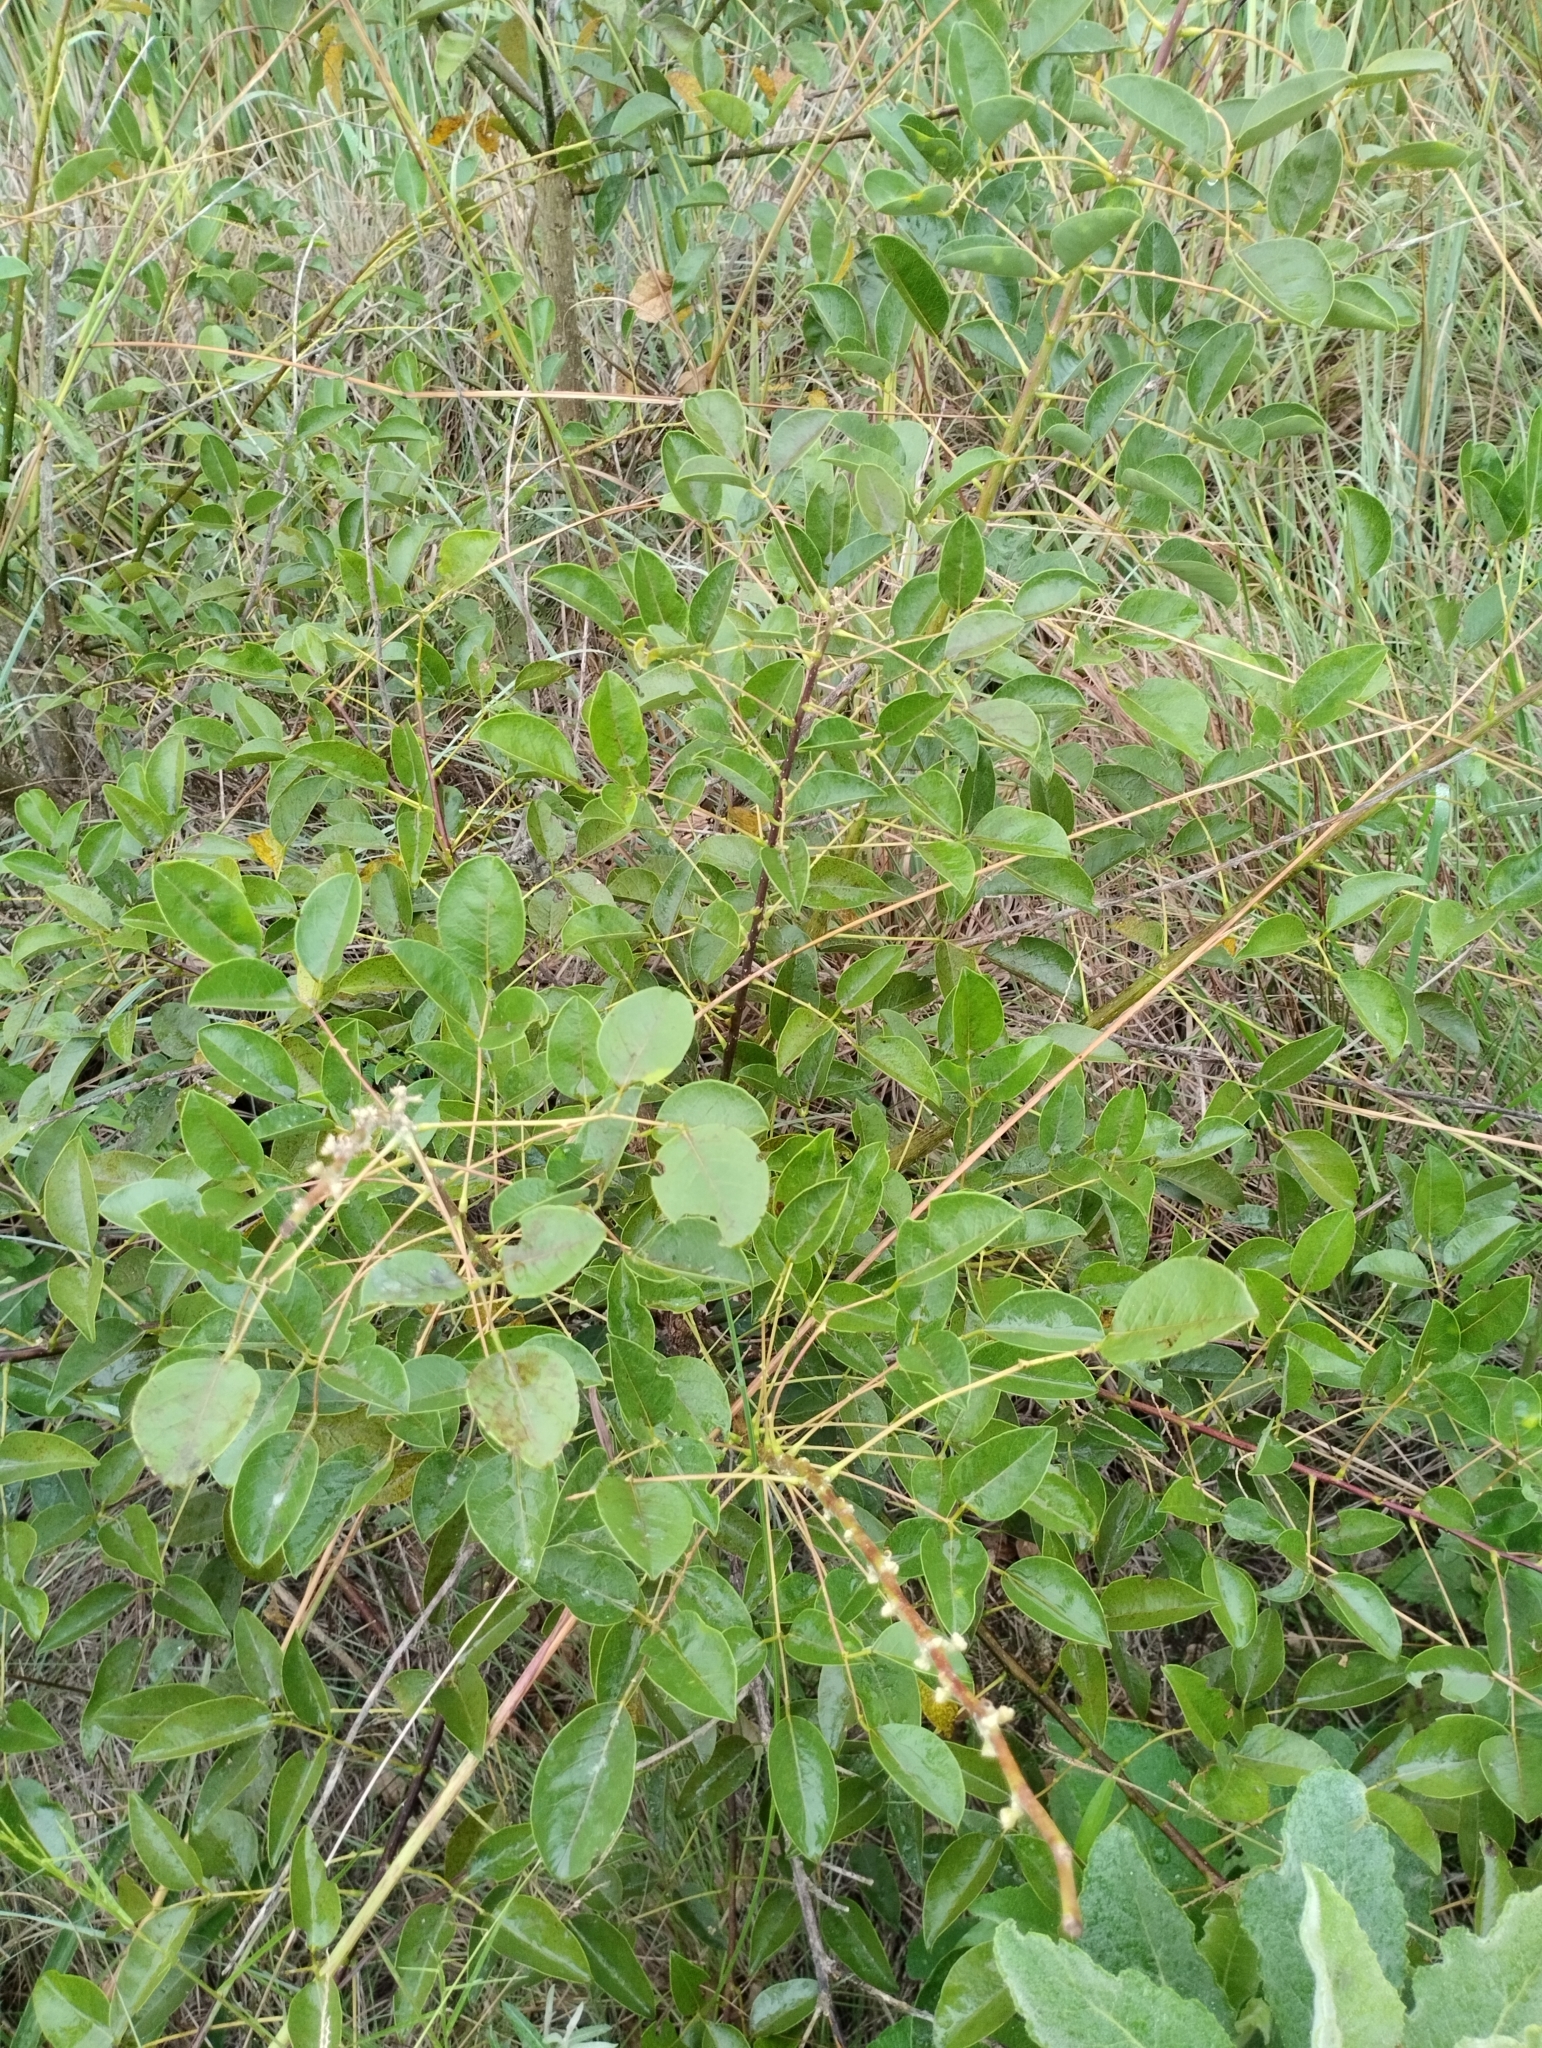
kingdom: Plantae
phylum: Tracheophyta
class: Magnoliopsida
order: Fabales
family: Fabaceae
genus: Erythrina
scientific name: Erythrina crista-galli
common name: Cockspur coral tree
